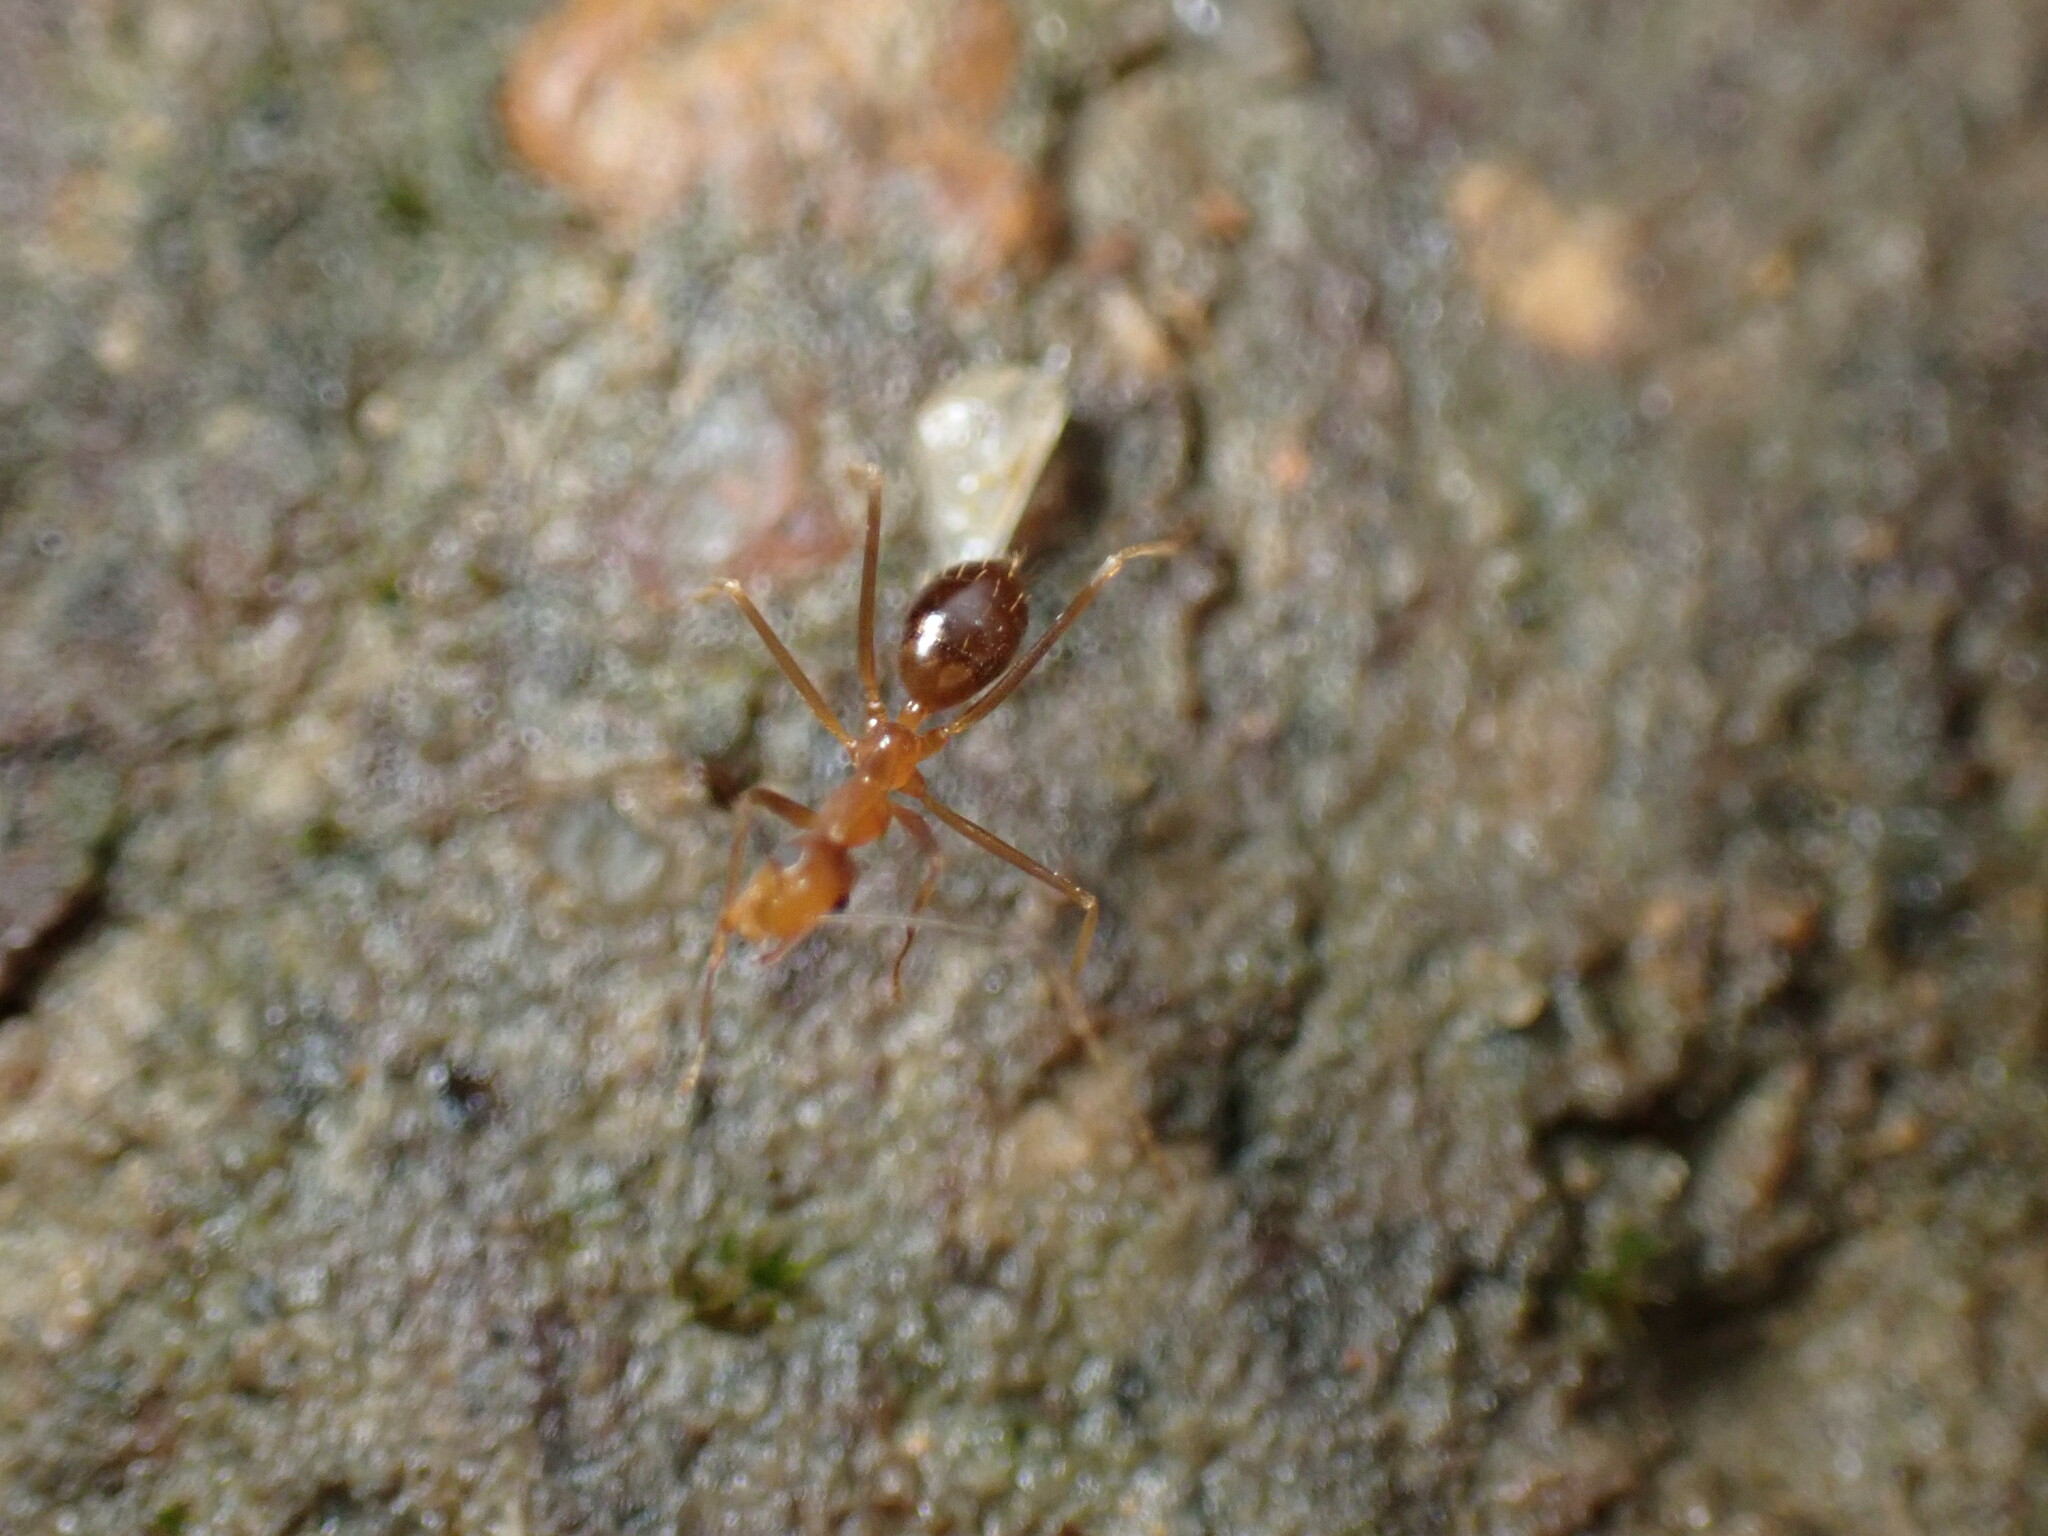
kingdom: Animalia
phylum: Arthropoda
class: Insecta
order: Hymenoptera
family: Formicidae
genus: Anoplolepis
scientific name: Anoplolepis gracilipes
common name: Ant
